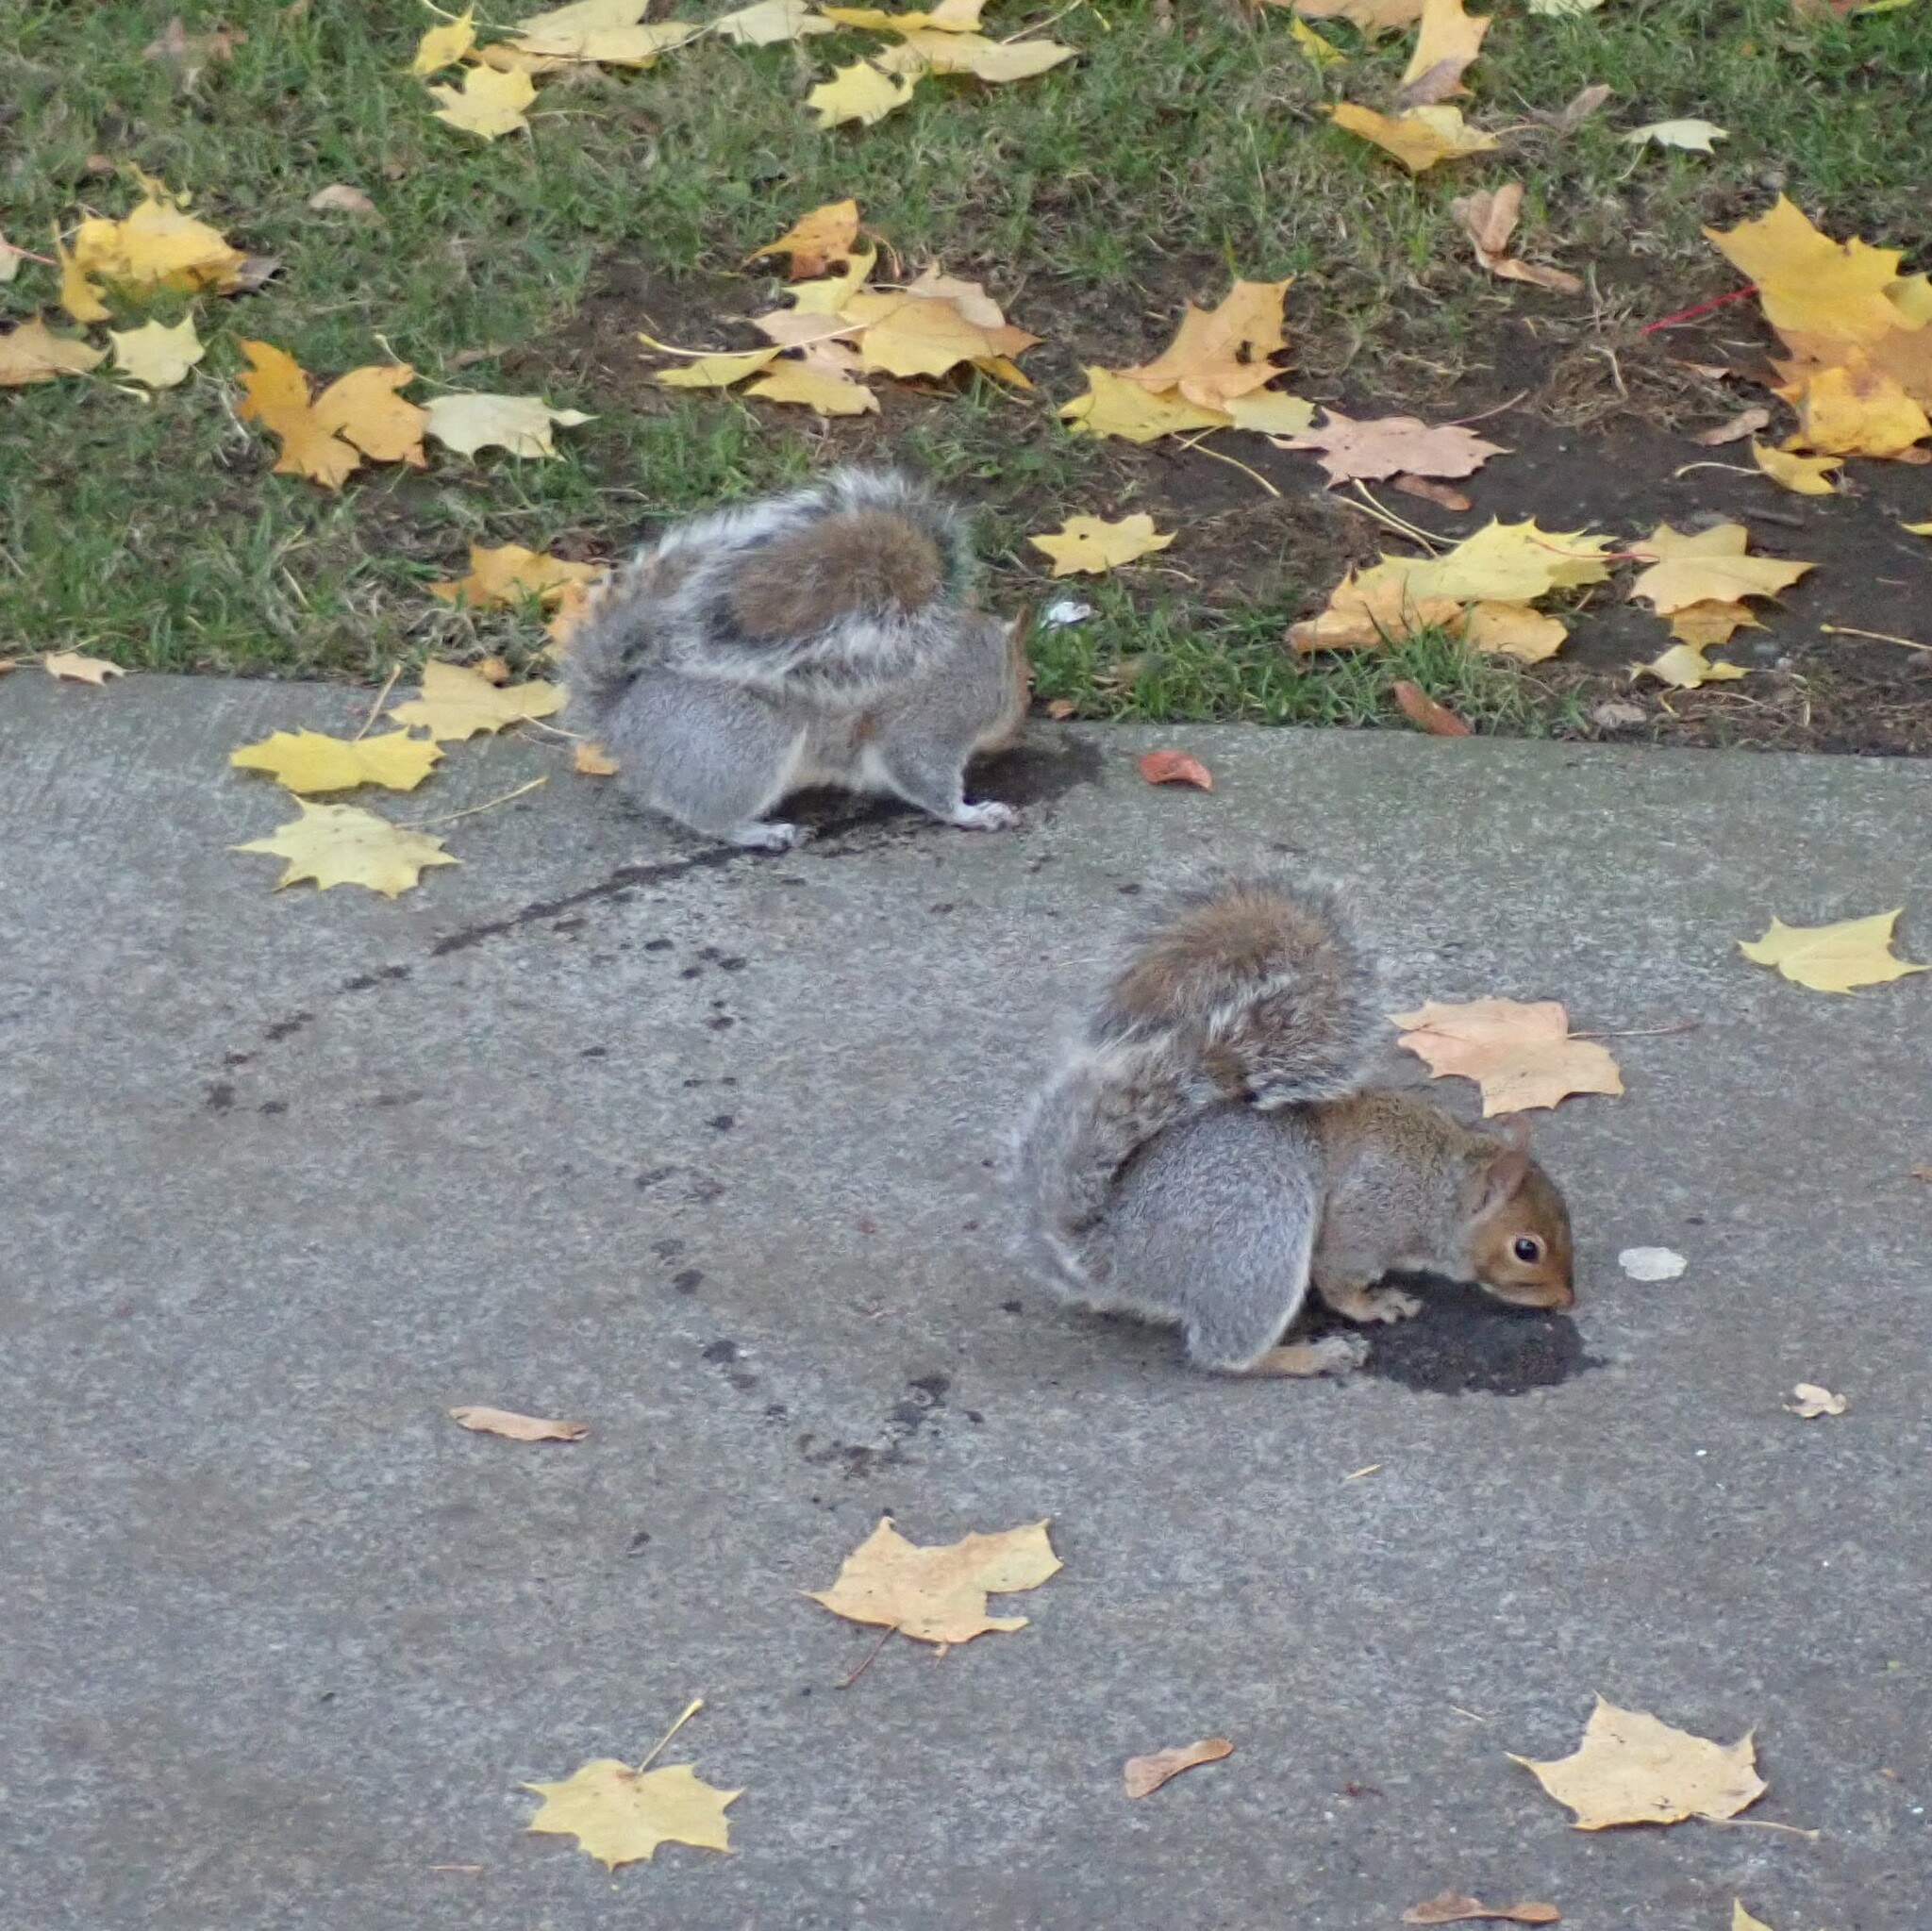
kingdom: Animalia
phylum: Chordata
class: Mammalia
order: Rodentia
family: Sciuridae
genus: Sciurus
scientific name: Sciurus carolinensis
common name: Eastern gray squirrel
